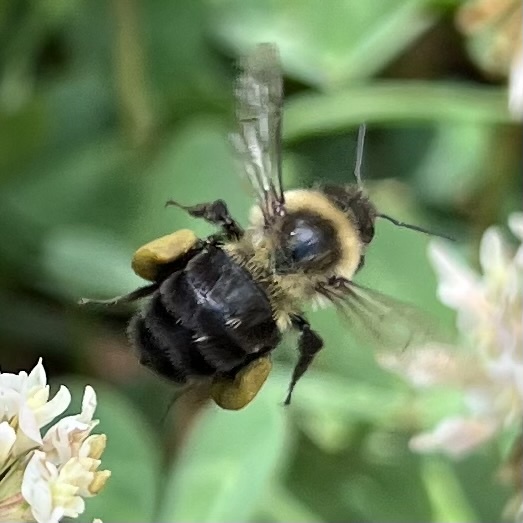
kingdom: Animalia
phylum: Arthropoda
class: Insecta
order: Hymenoptera
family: Apidae
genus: Bombus
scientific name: Bombus impatiens
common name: Common eastern bumble bee
